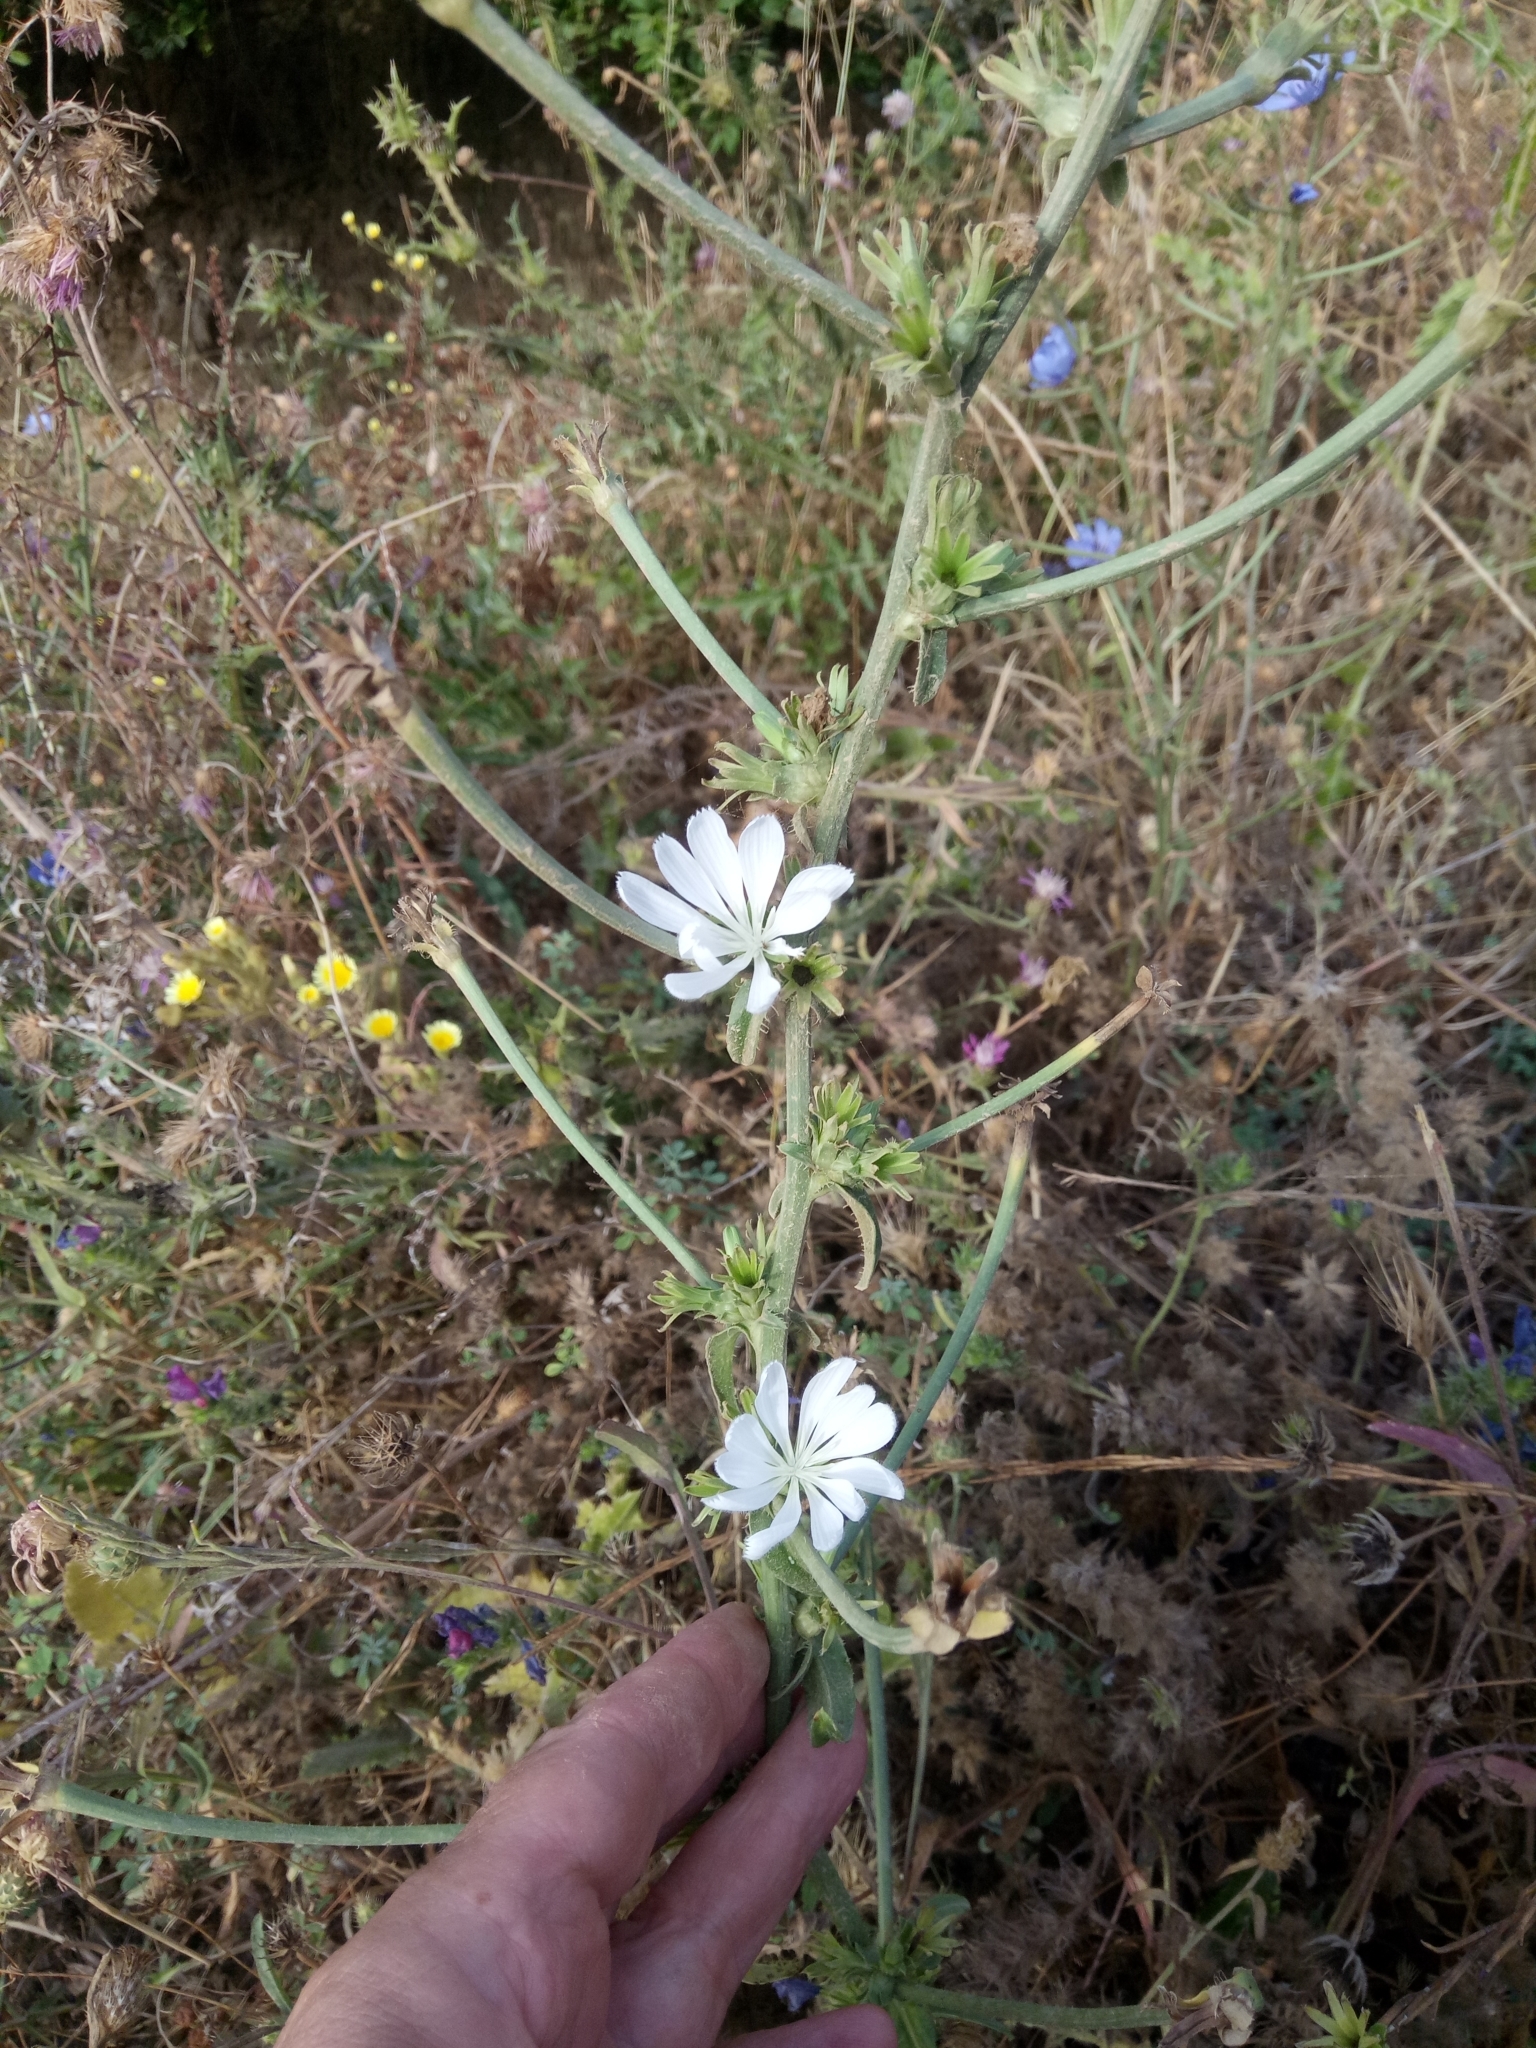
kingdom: Plantae
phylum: Tracheophyta
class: Magnoliopsida
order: Asterales
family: Asteraceae
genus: Cichorium
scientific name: Cichorium intybus
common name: Chicory
